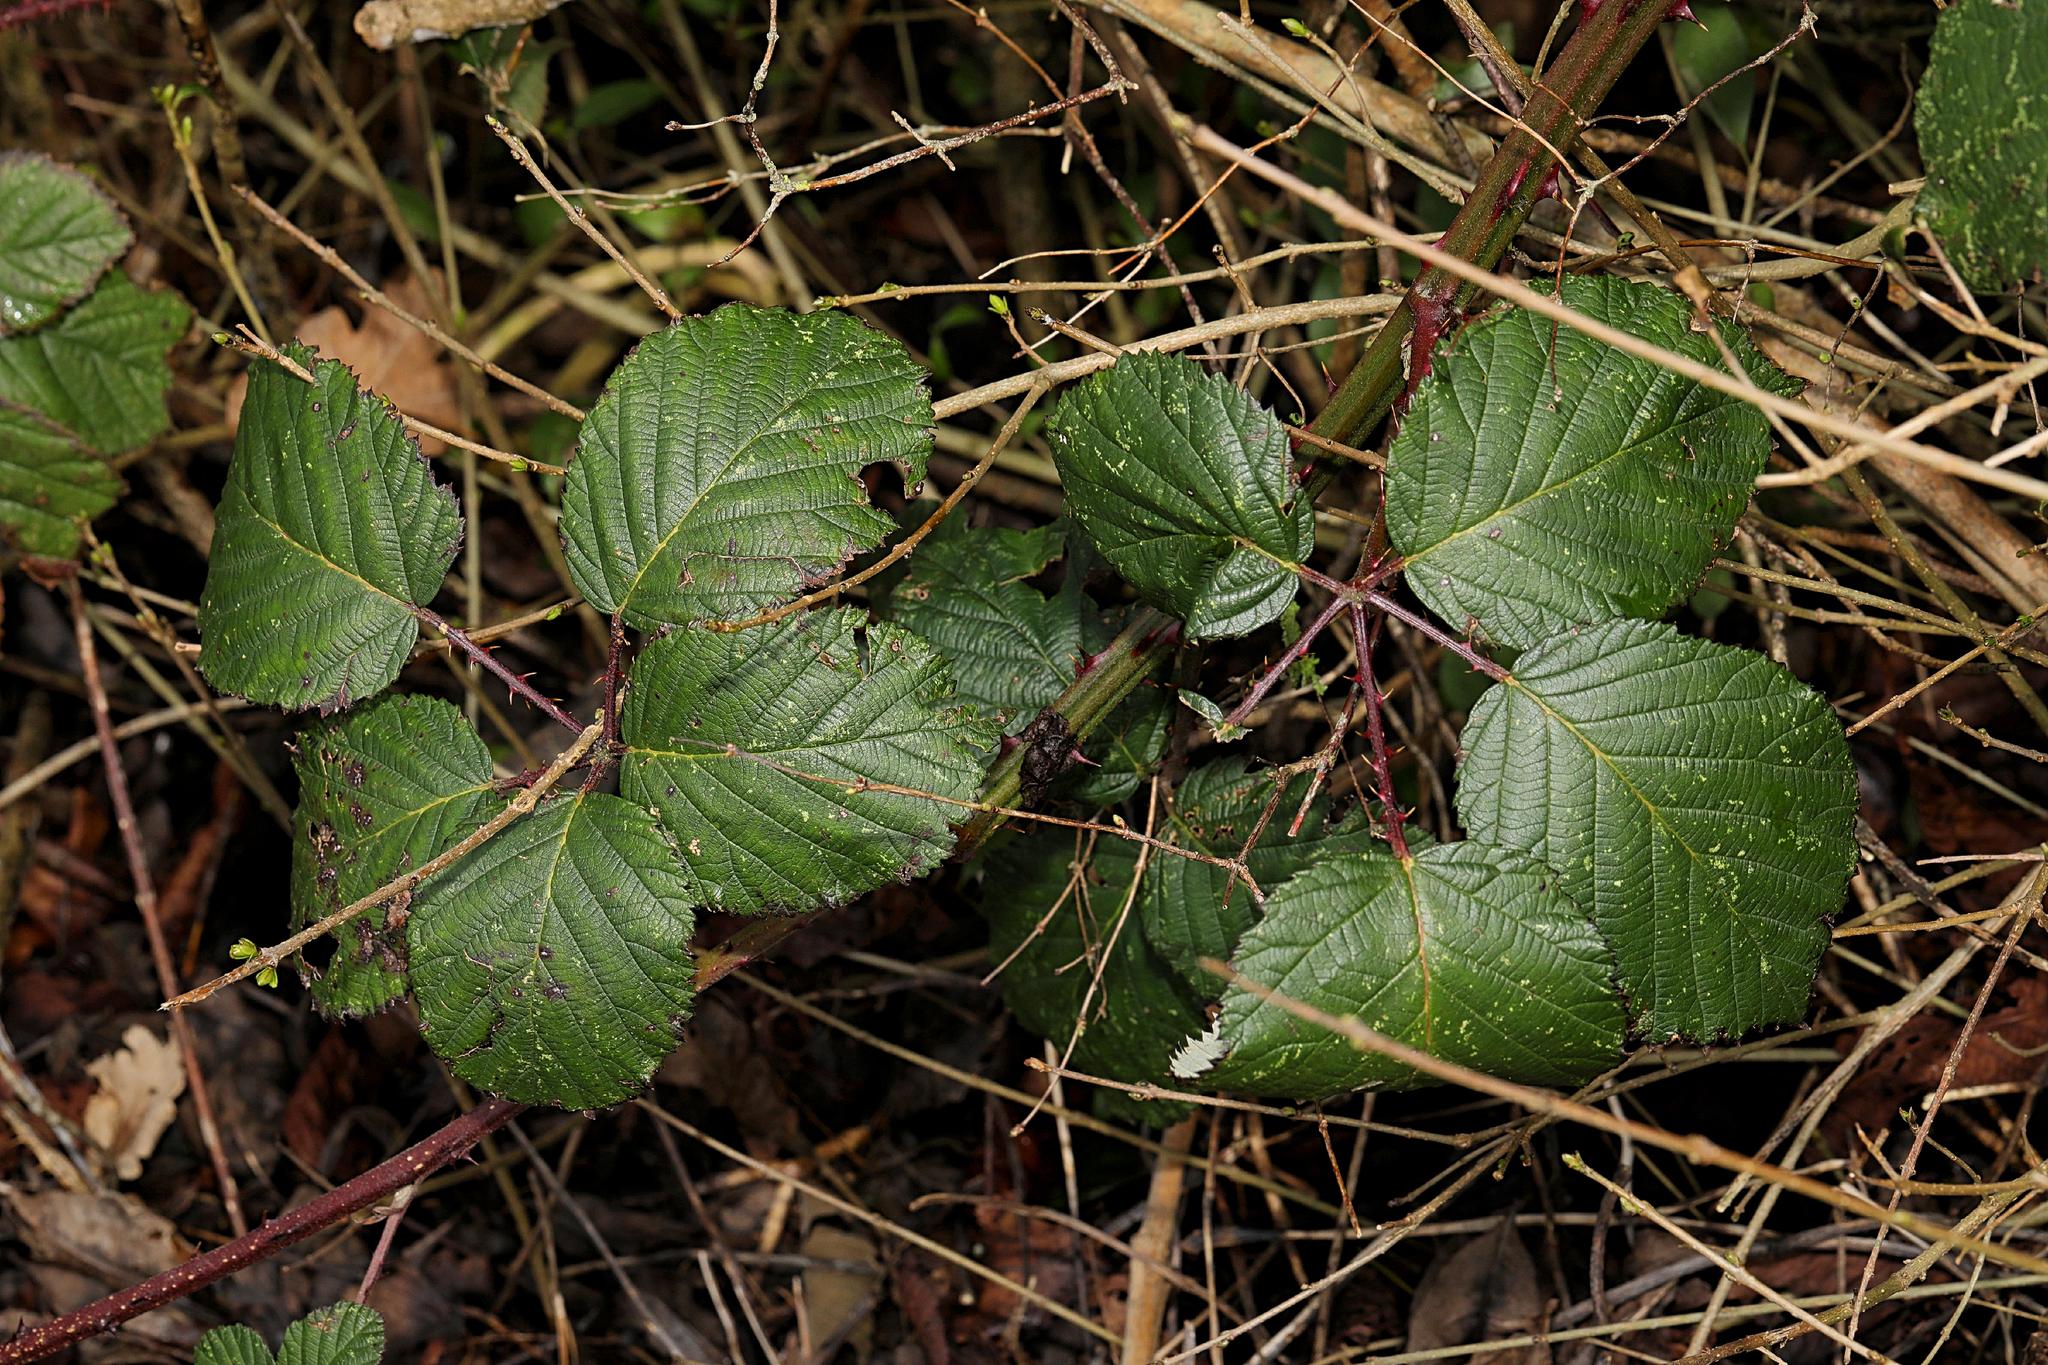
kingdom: Plantae
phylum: Tracheophyta
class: Magnoliopsida
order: Rosales
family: Rosaceae
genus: Rubus
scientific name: Rubus armeniacus
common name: Himalayan blackberry
